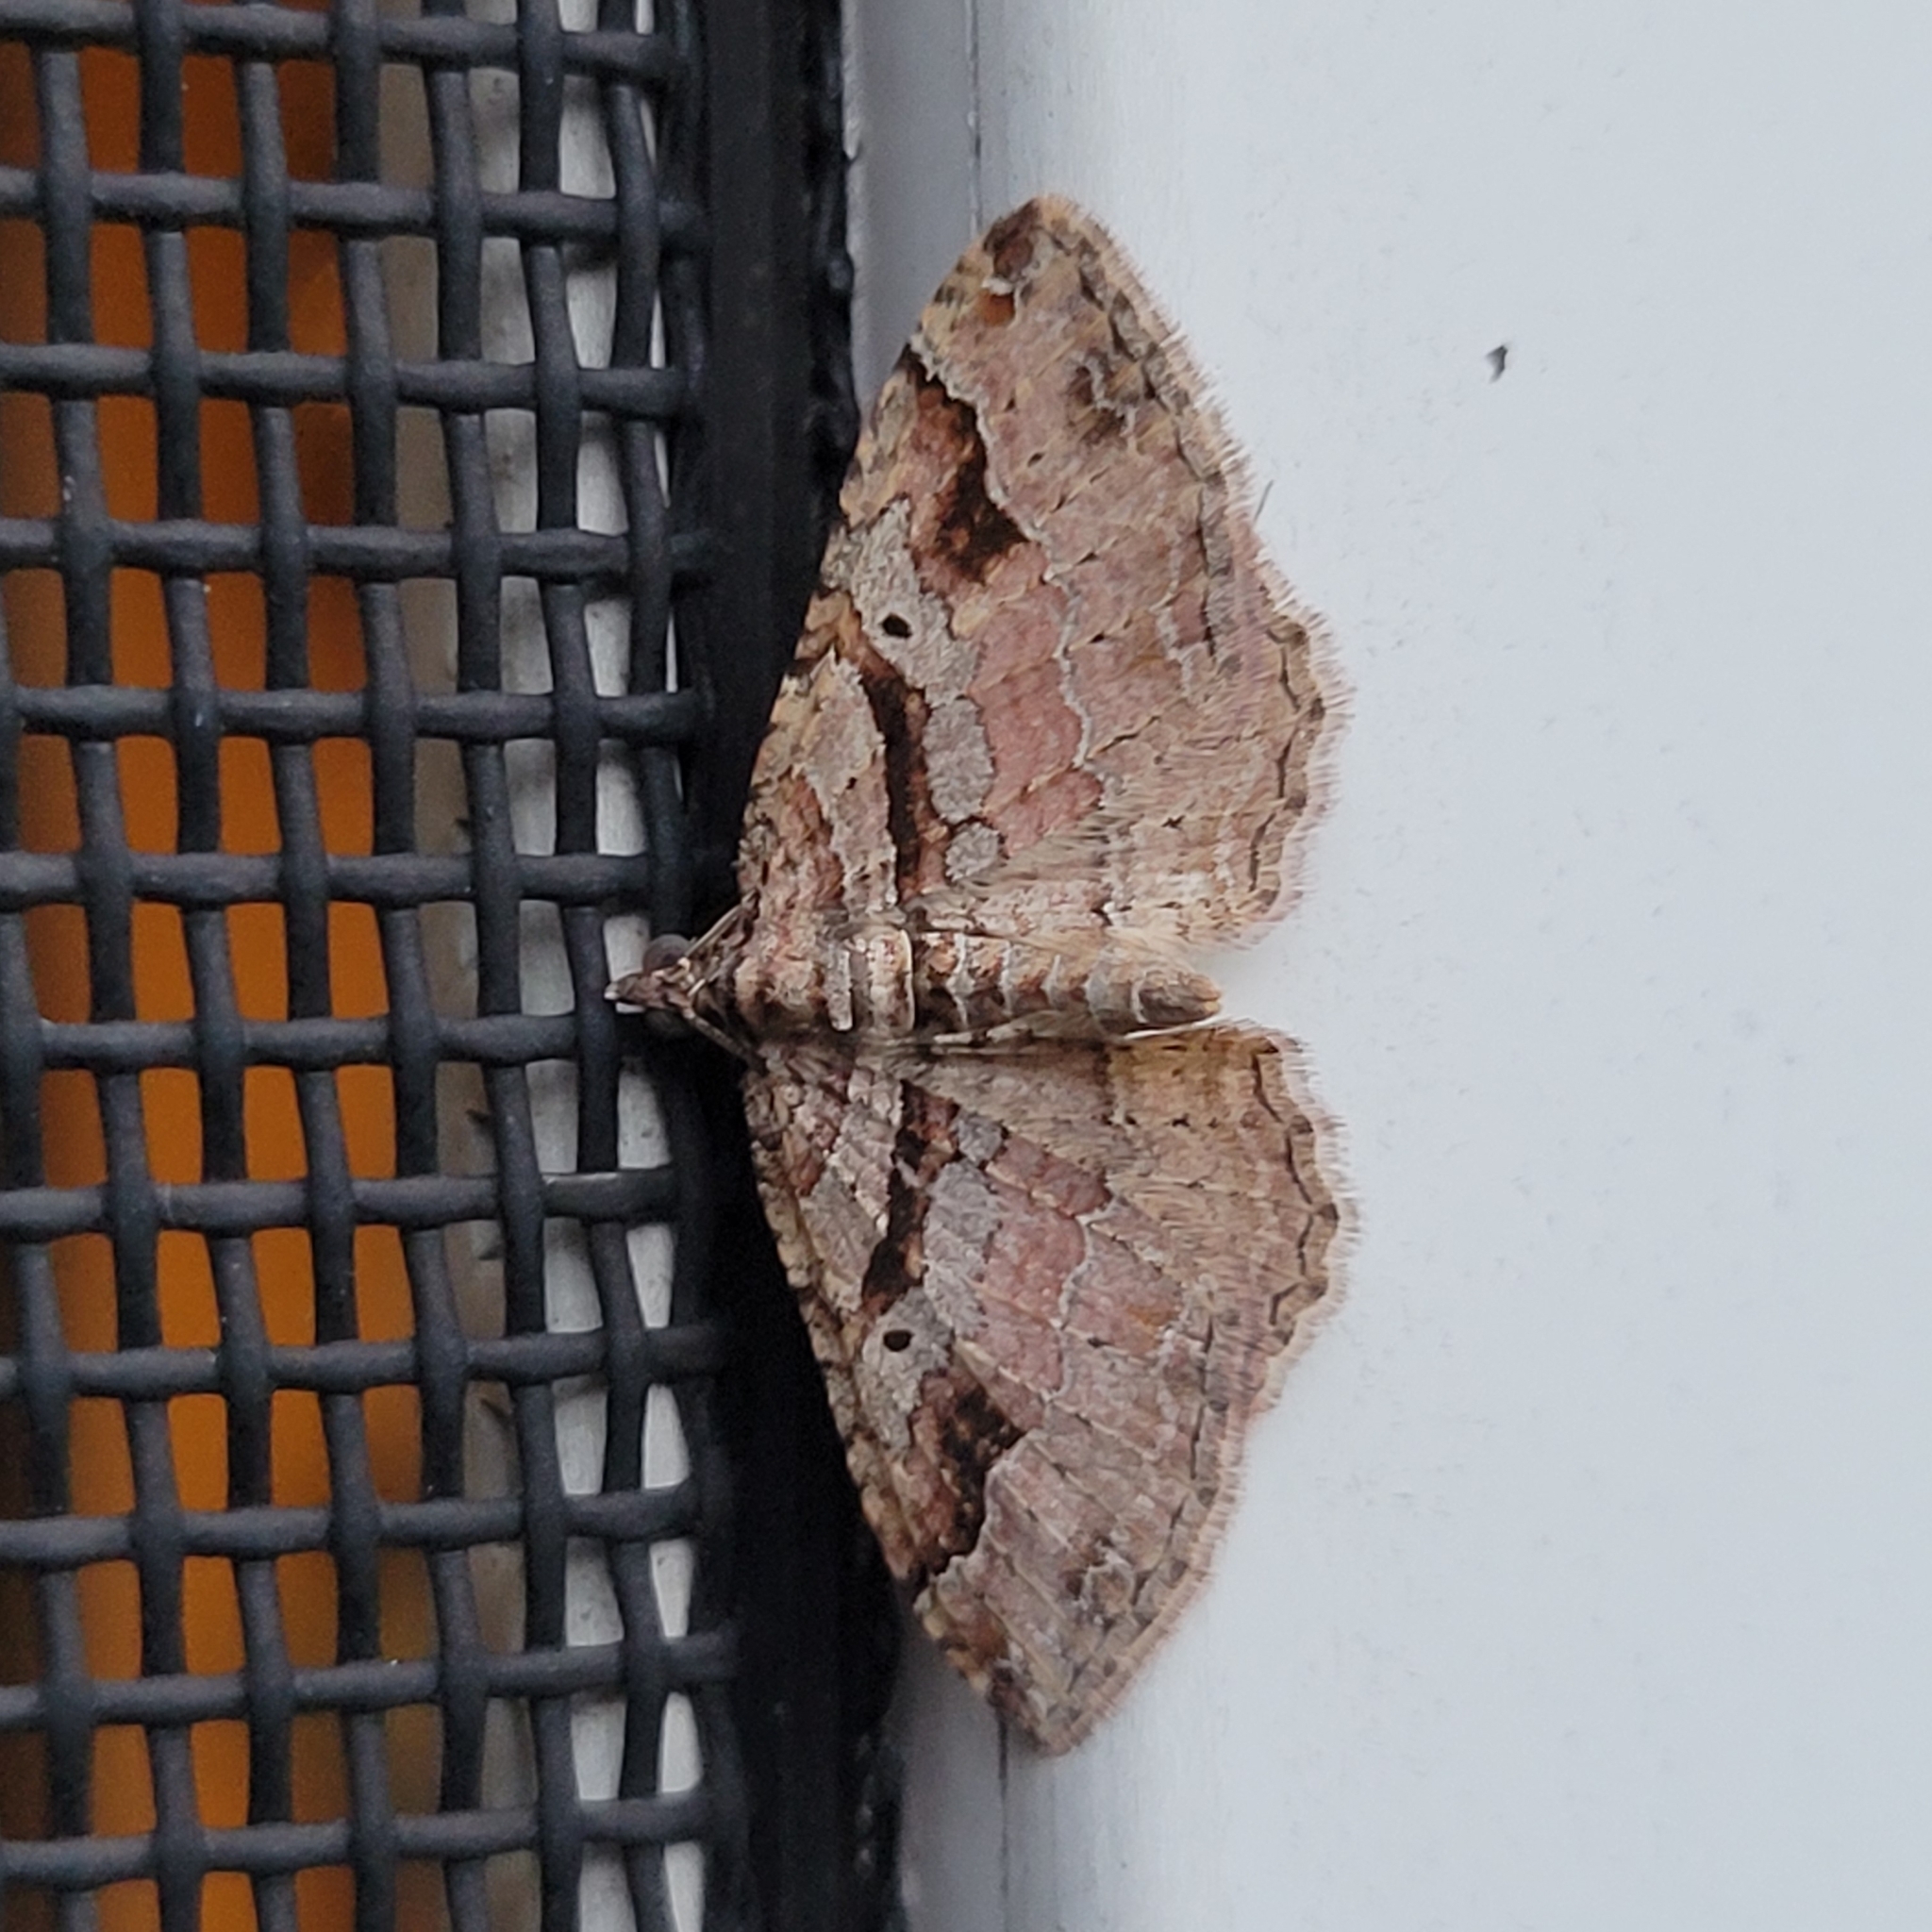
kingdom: Animalia
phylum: Arthropoda
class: Insecta
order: Lepidoptera
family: Geometridae
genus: Costaconvexa
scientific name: Costaconvexa centrostrigaria
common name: Bent-line carpet
